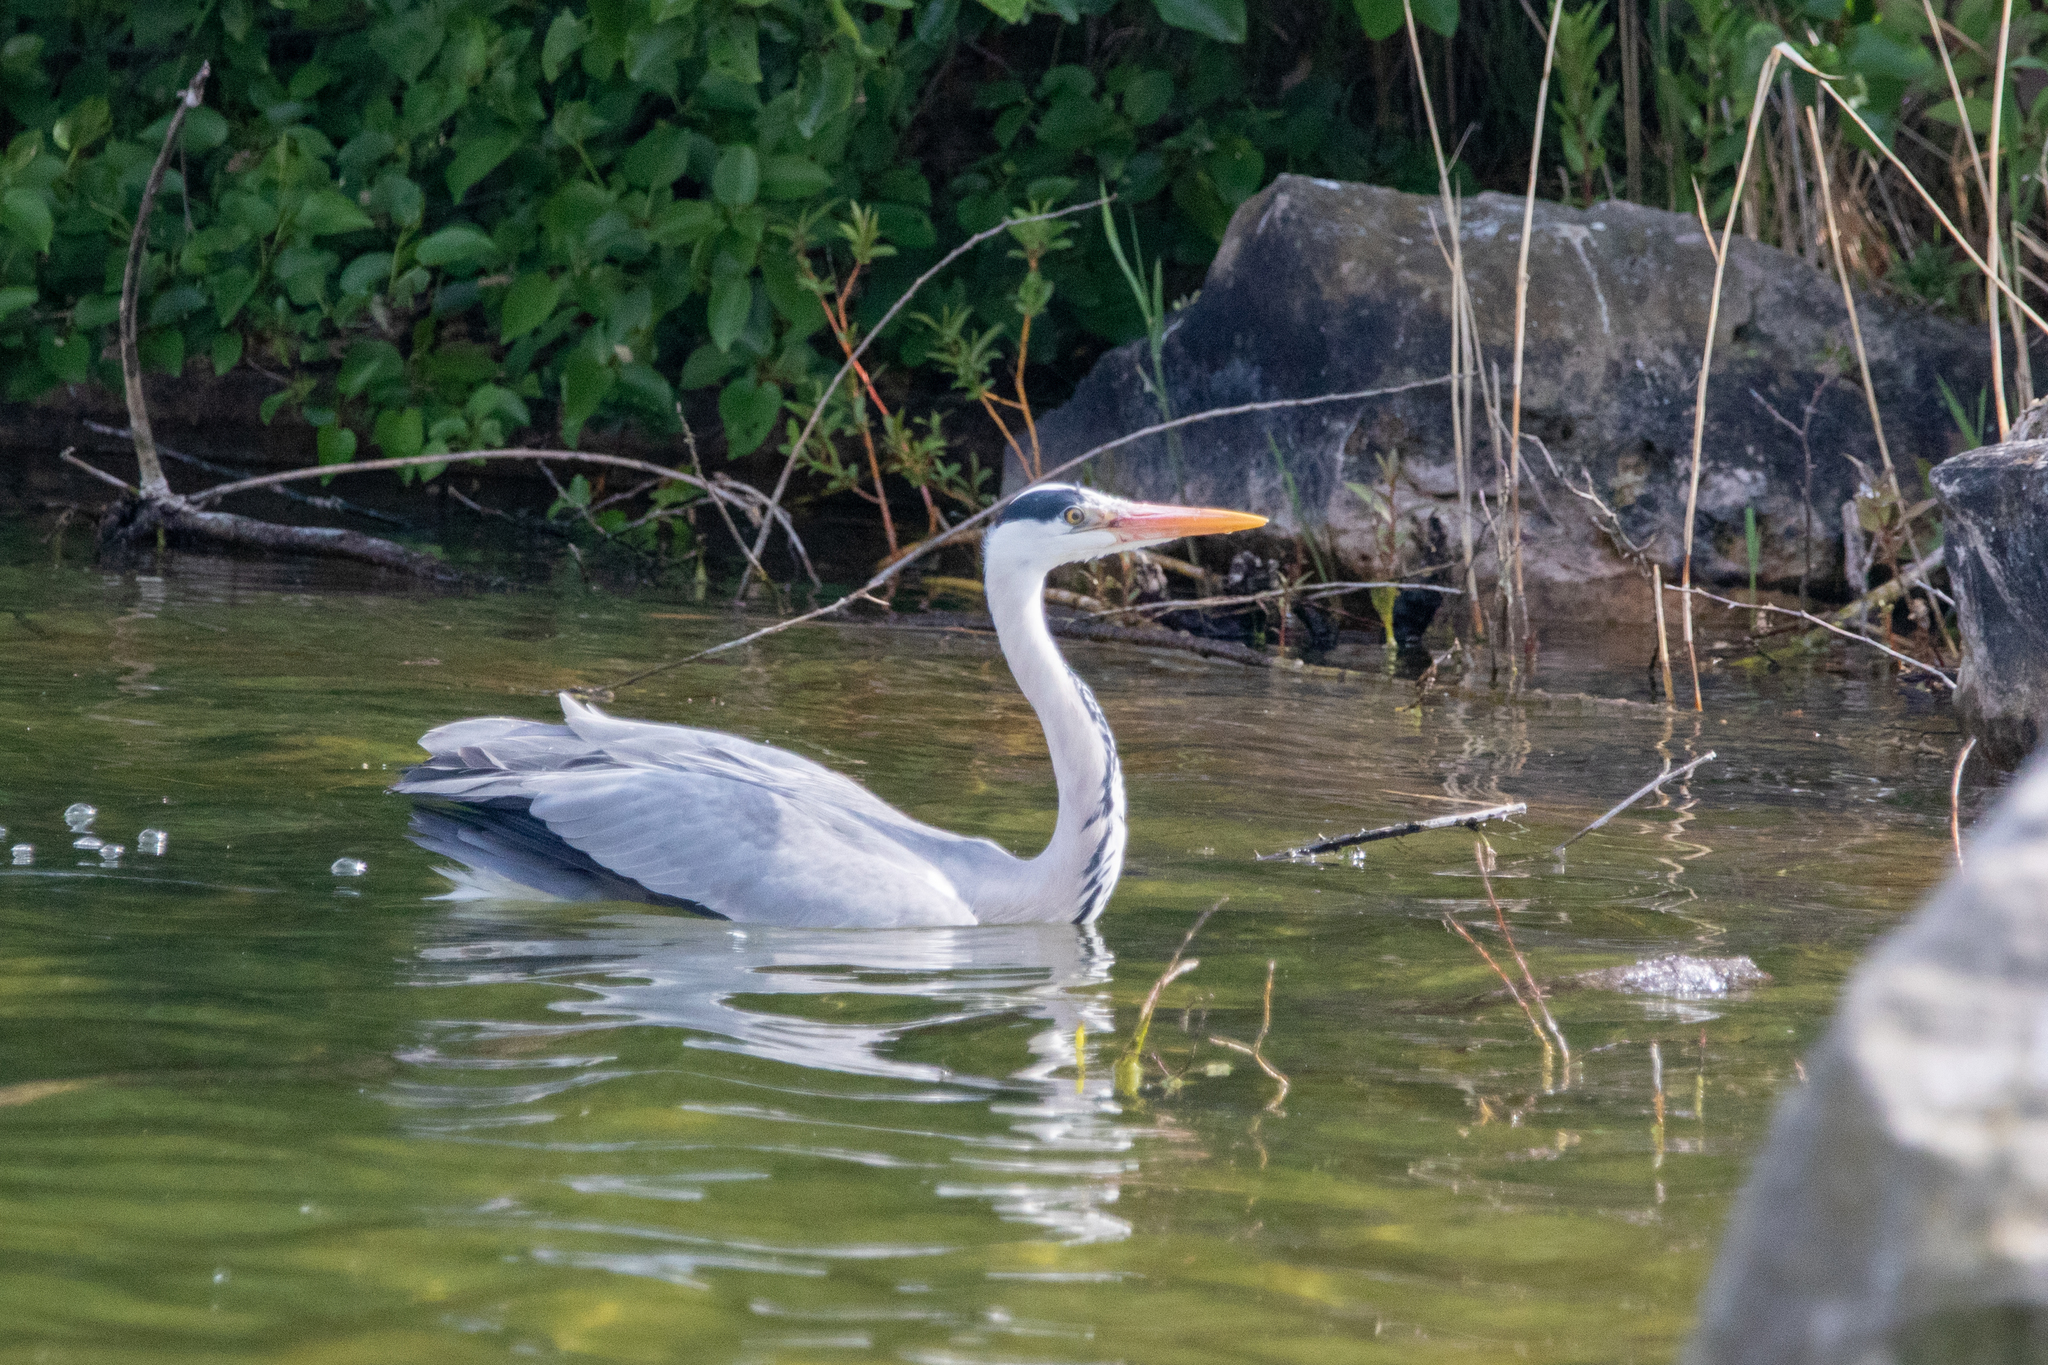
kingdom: Animalia
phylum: Chordata
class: Aves
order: Pelecaniformes
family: Ardeidae
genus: Ardea
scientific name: Ardea cinerea
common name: Grey heron
